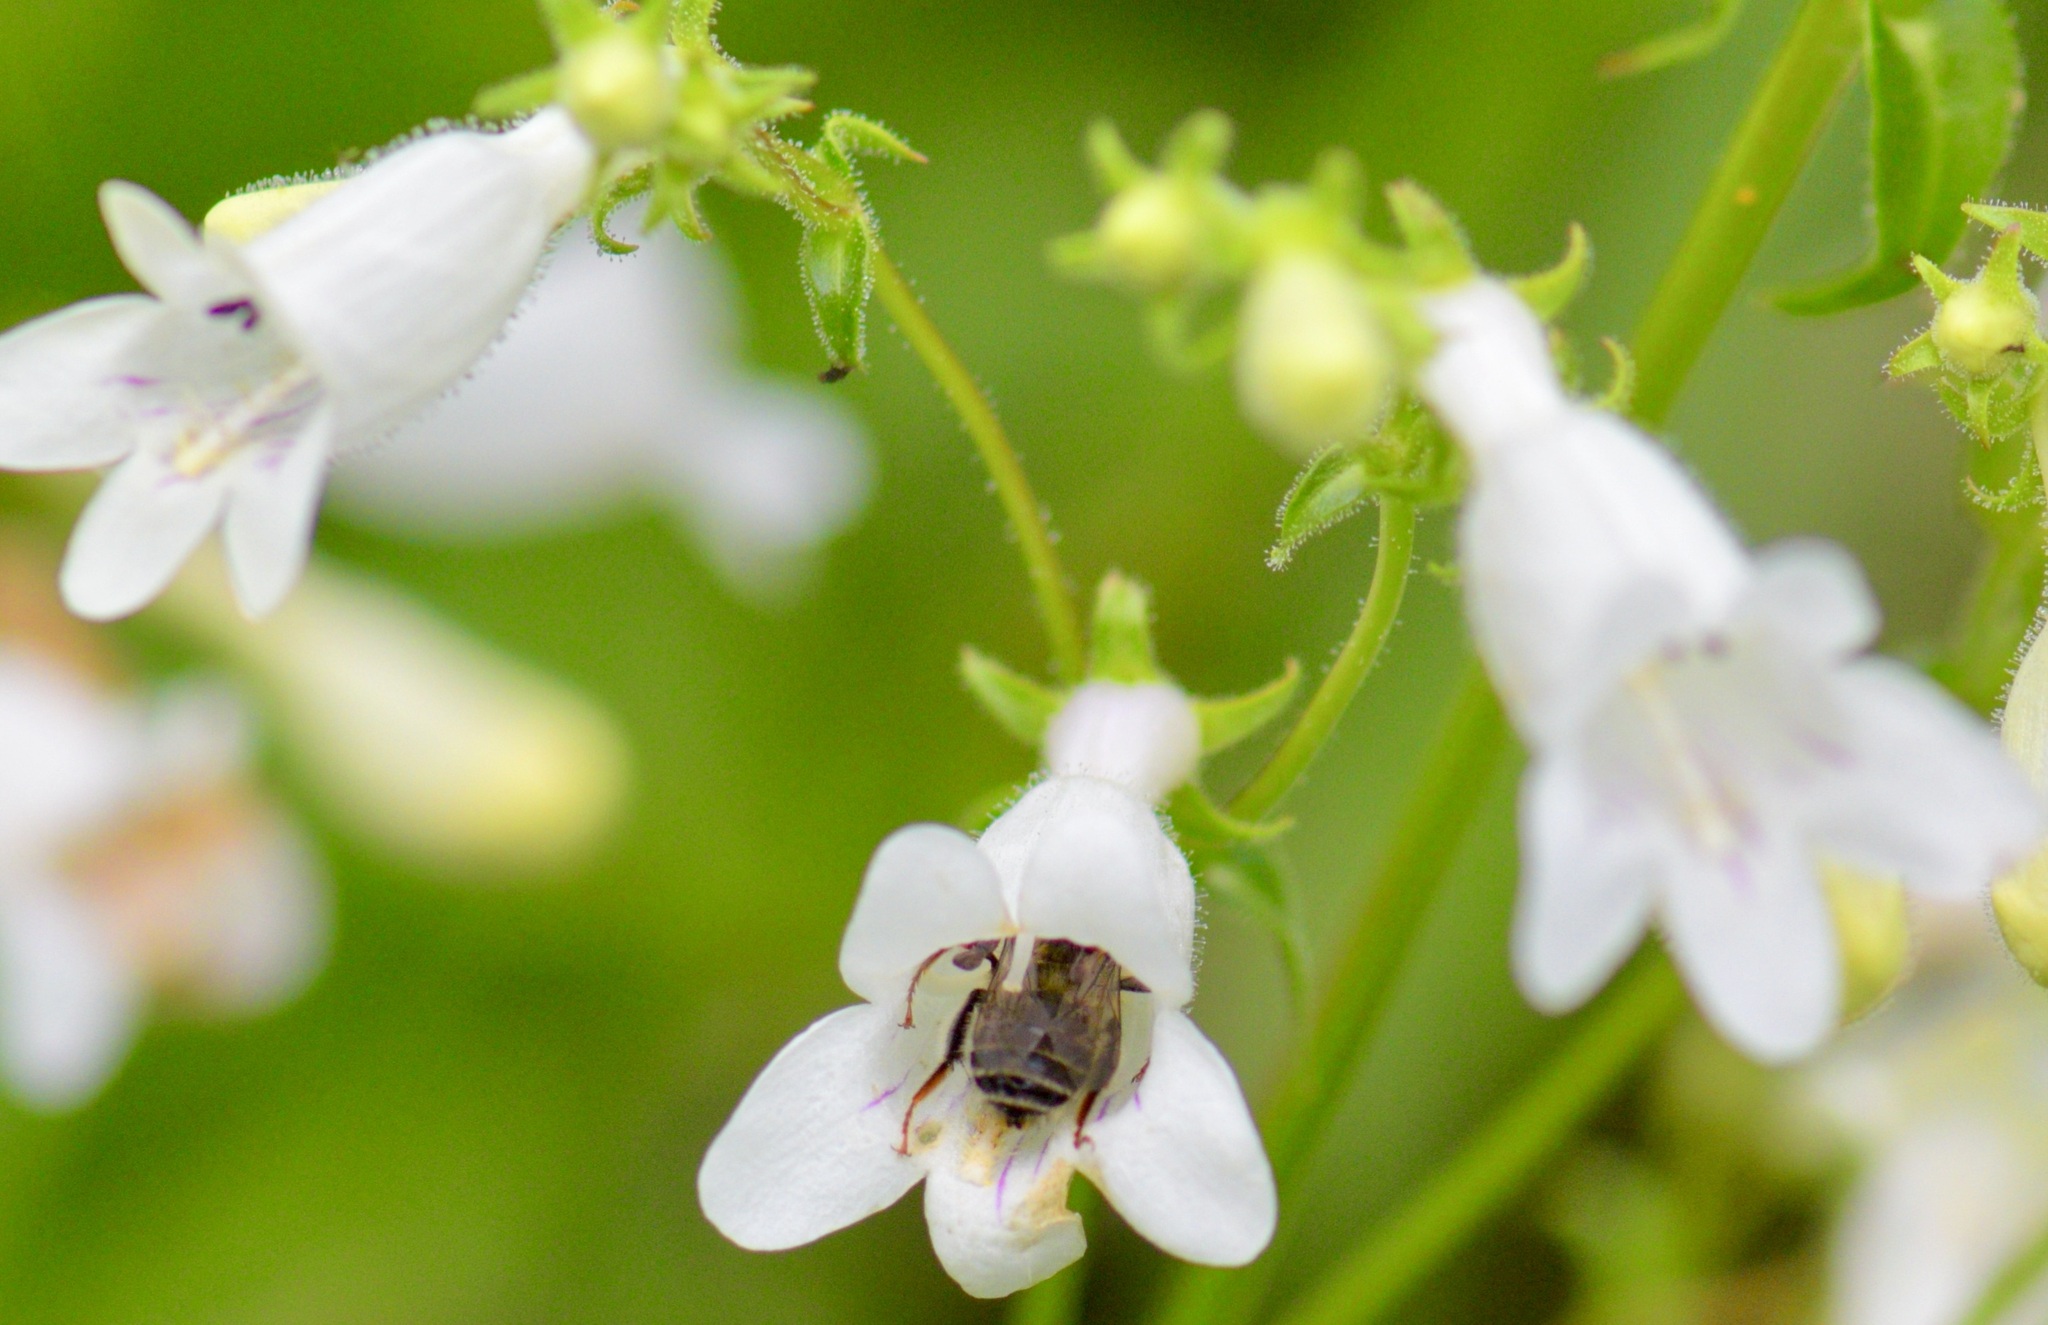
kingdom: Animalia
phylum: Arthropoda
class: Insecta
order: Hymenoptera
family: Apidae
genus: Anthophora
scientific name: Anthophora terminalis
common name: Orange-tipped wood-digger bee
